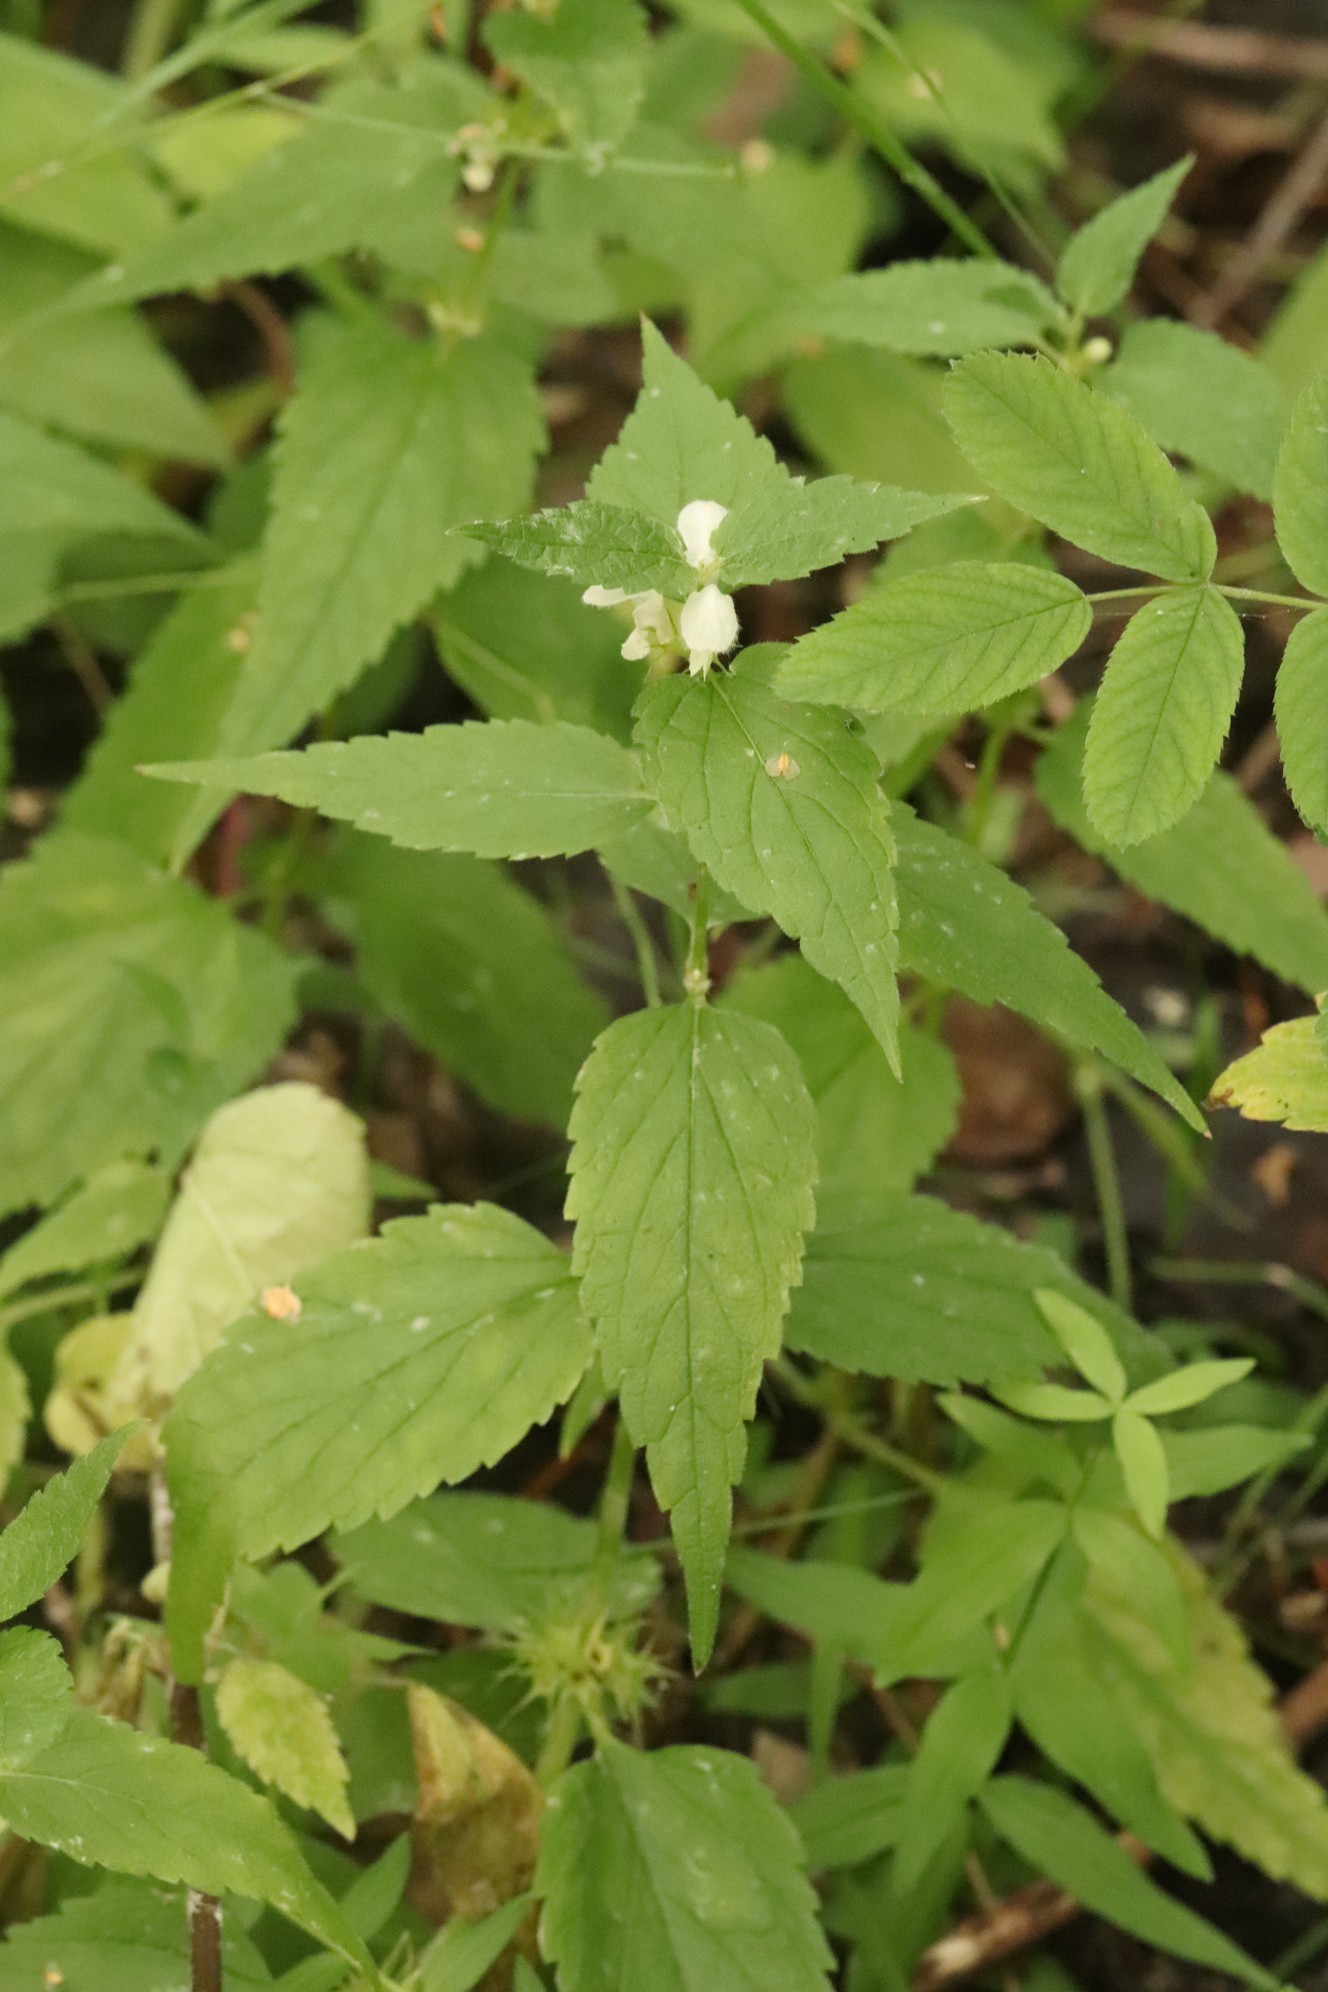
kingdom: Plantae
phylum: Tracheophyta
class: Magnoliopsida
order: Lamiales
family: Lamiaceae
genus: Lamium
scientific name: Lamium album
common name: White dead-nettle
